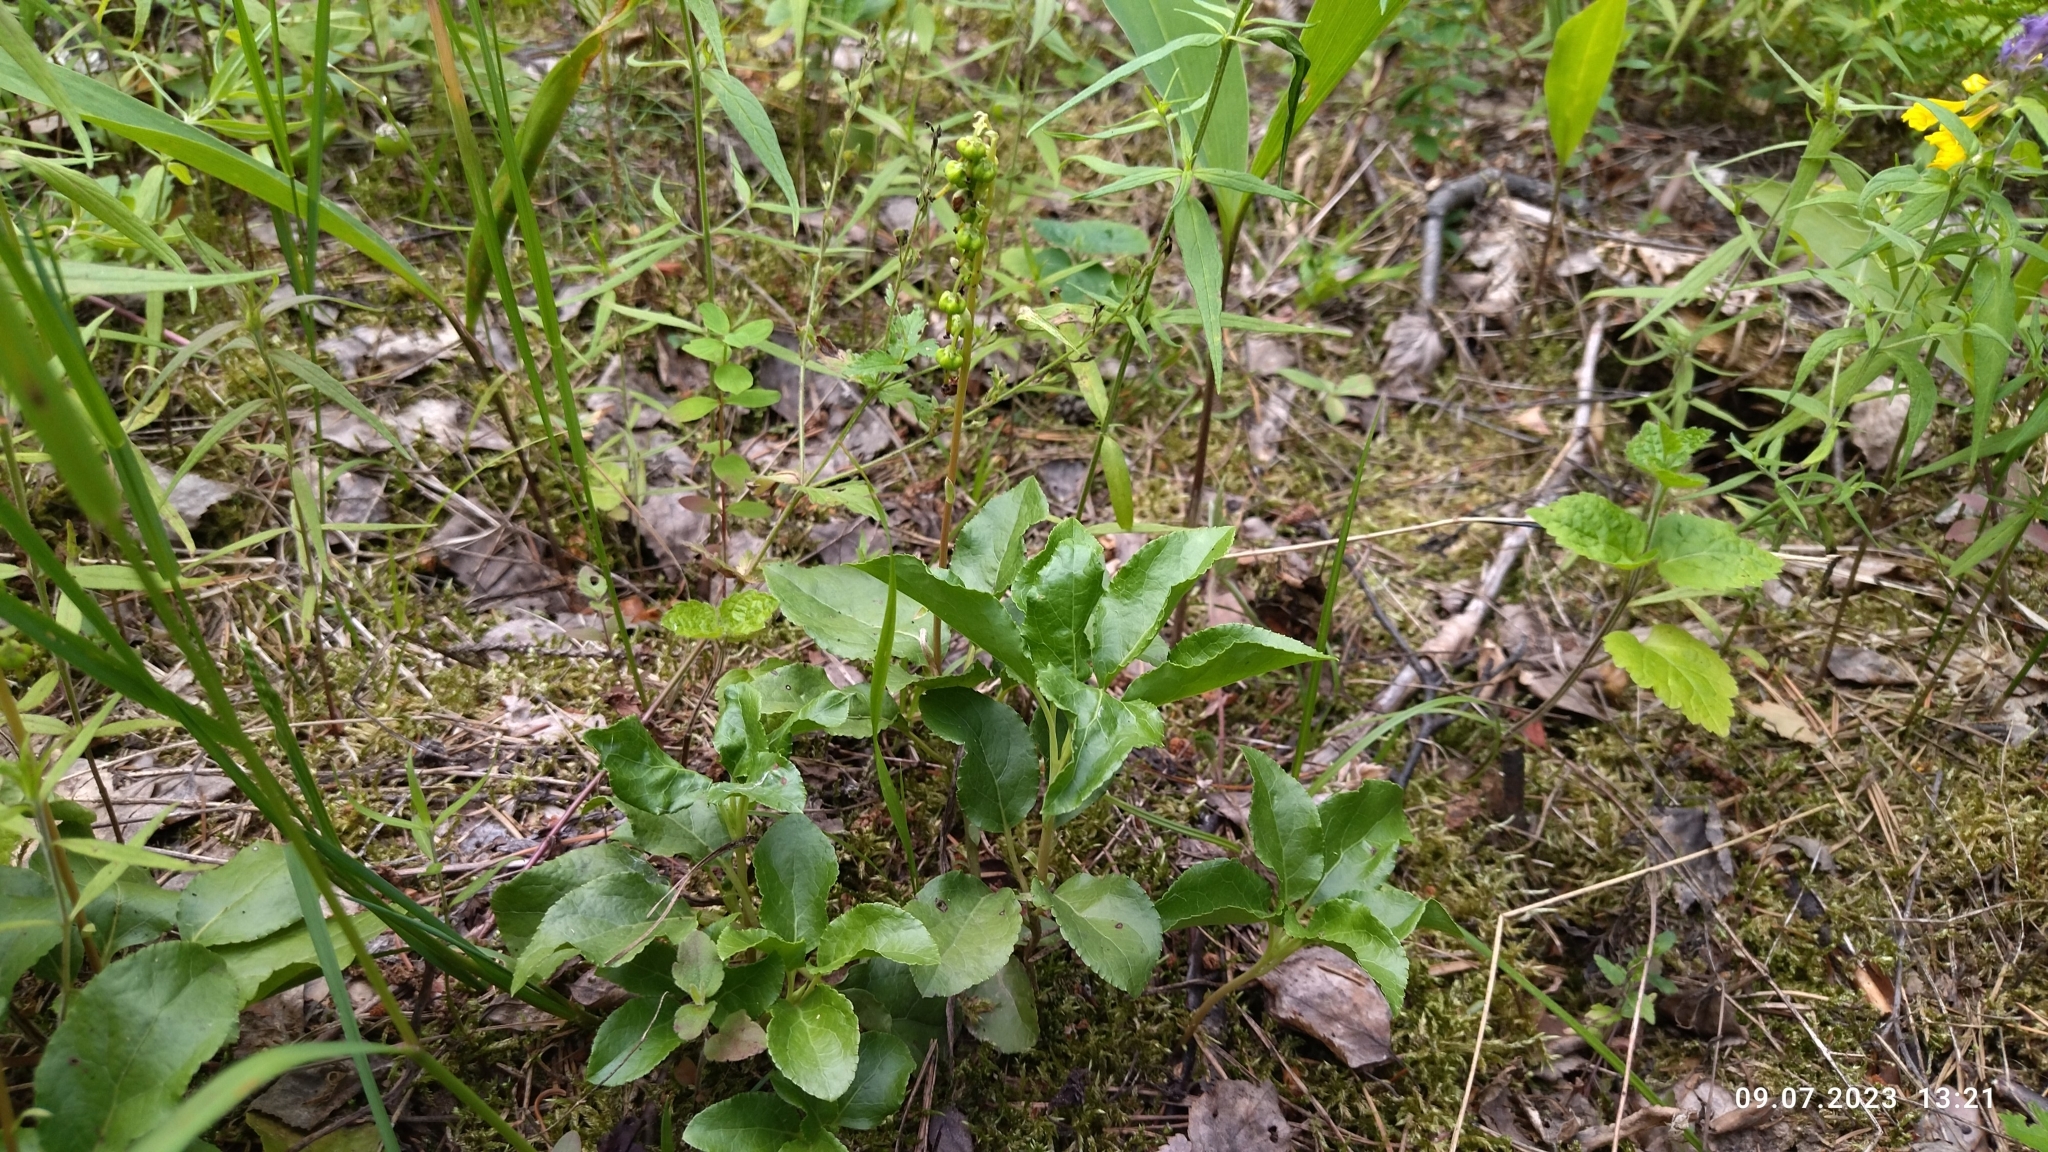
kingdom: Plantae
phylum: Tracheophyta
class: Magnoliopsida
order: Ericales
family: Ericaceae
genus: Orthilia
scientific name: Orthilia secunda
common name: One-sided orthilia
